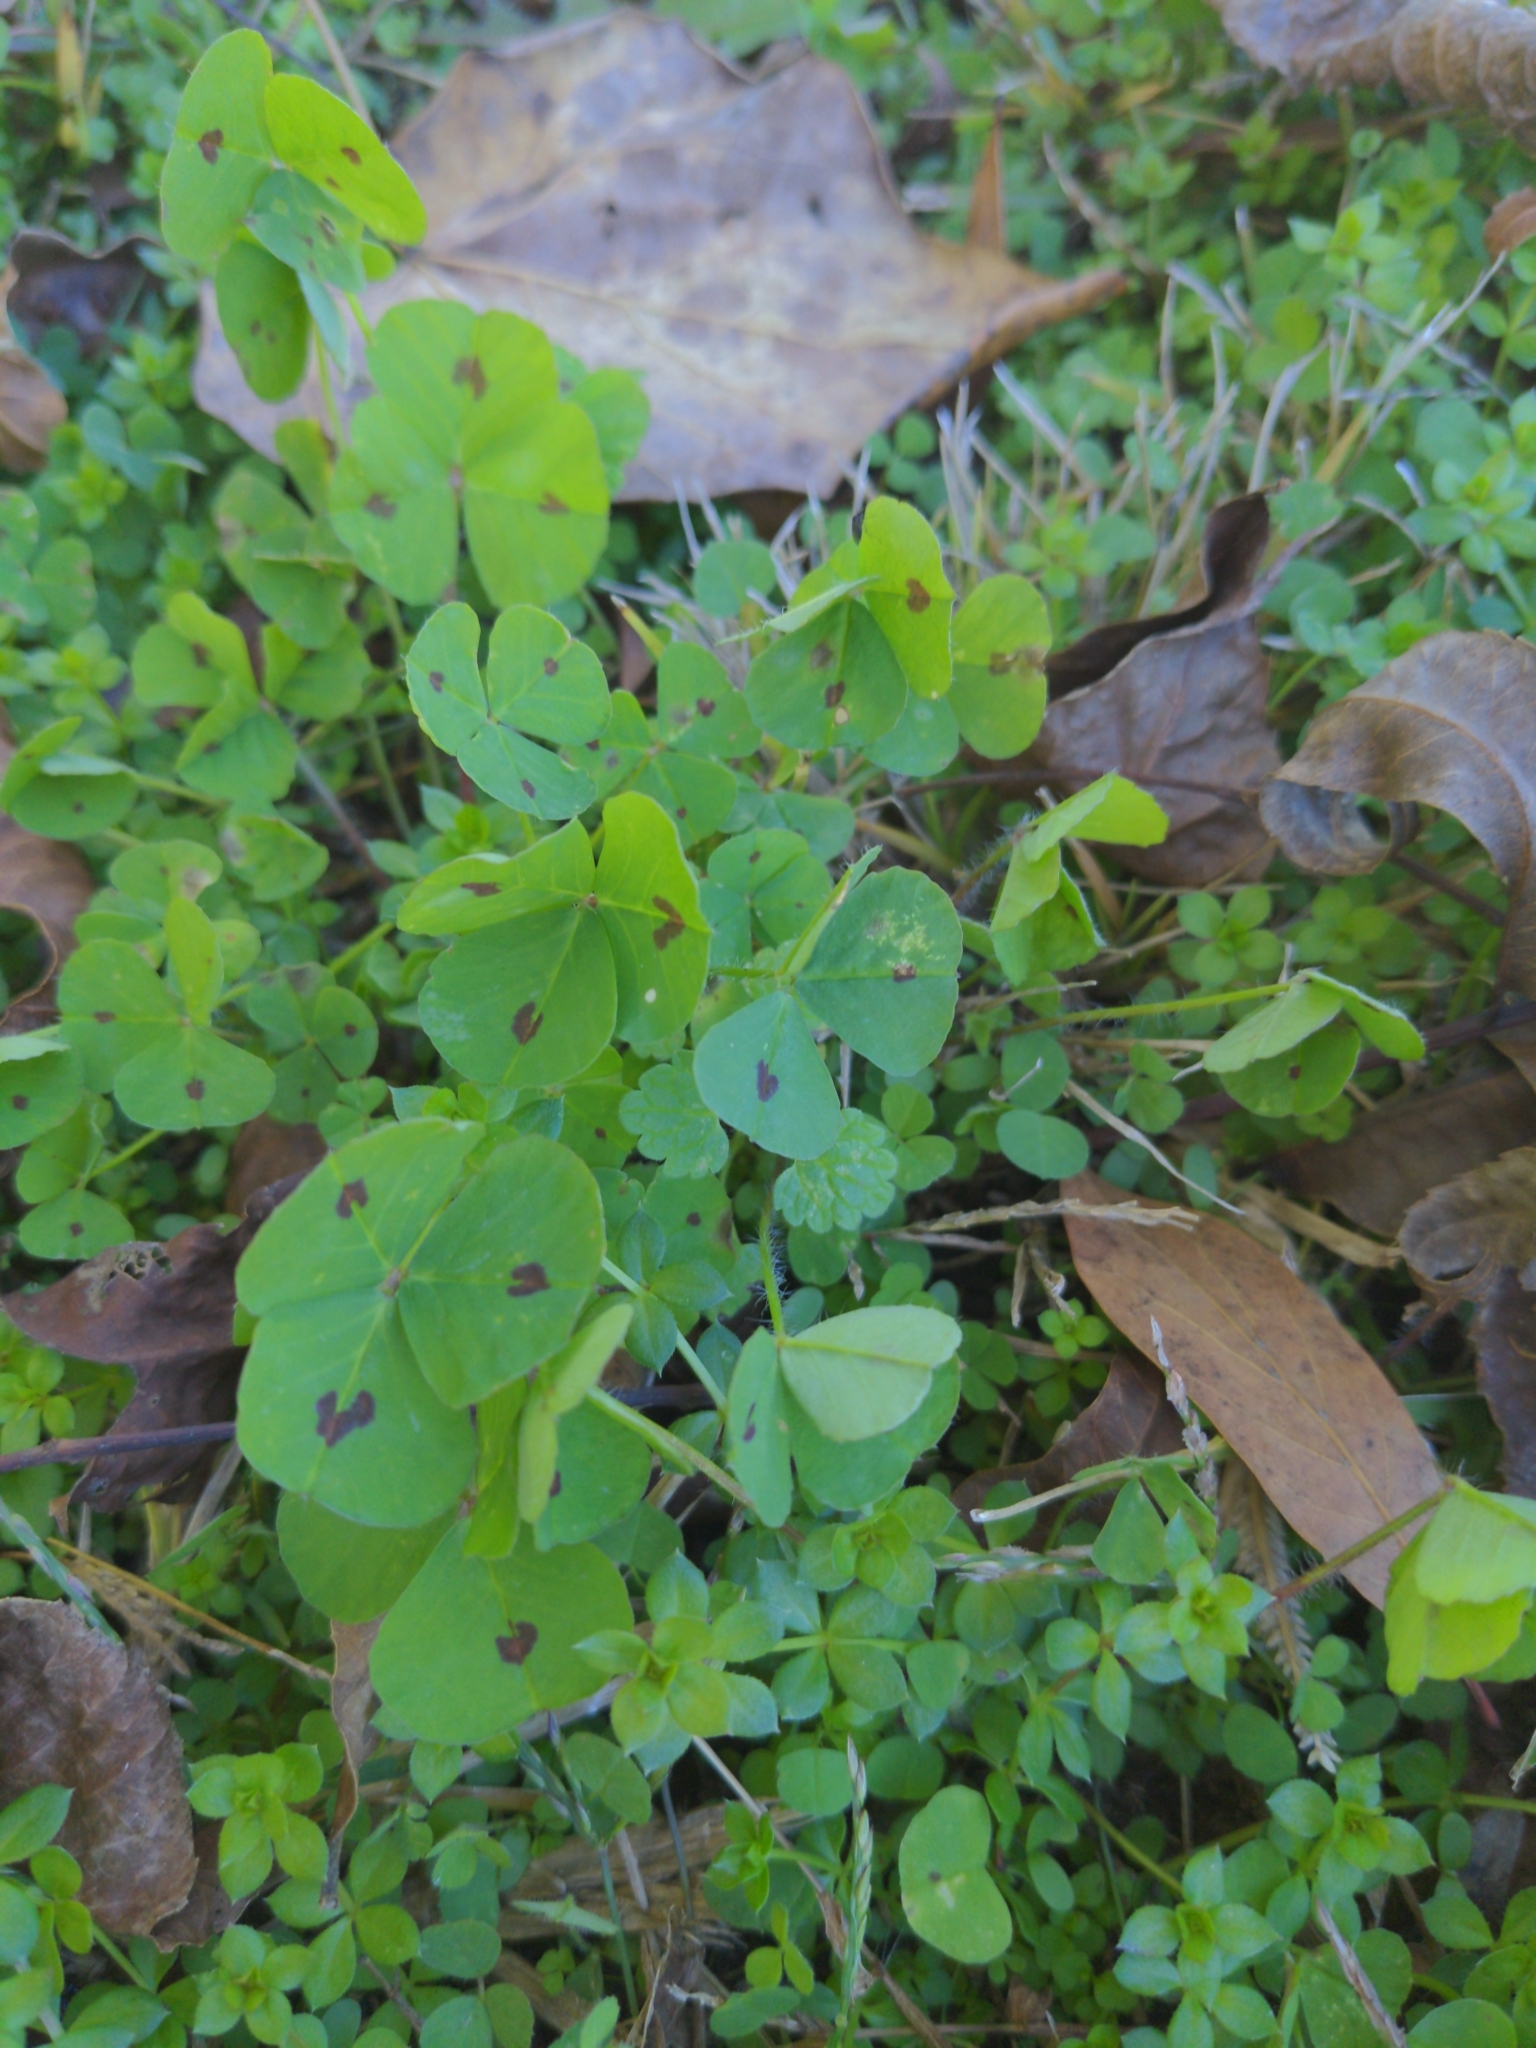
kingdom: Plantae
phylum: Tracheophyta
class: Magnoliopsida
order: Fabales
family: Fabaceae
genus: Medicago
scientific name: Medicago arabica
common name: Spotted medick
